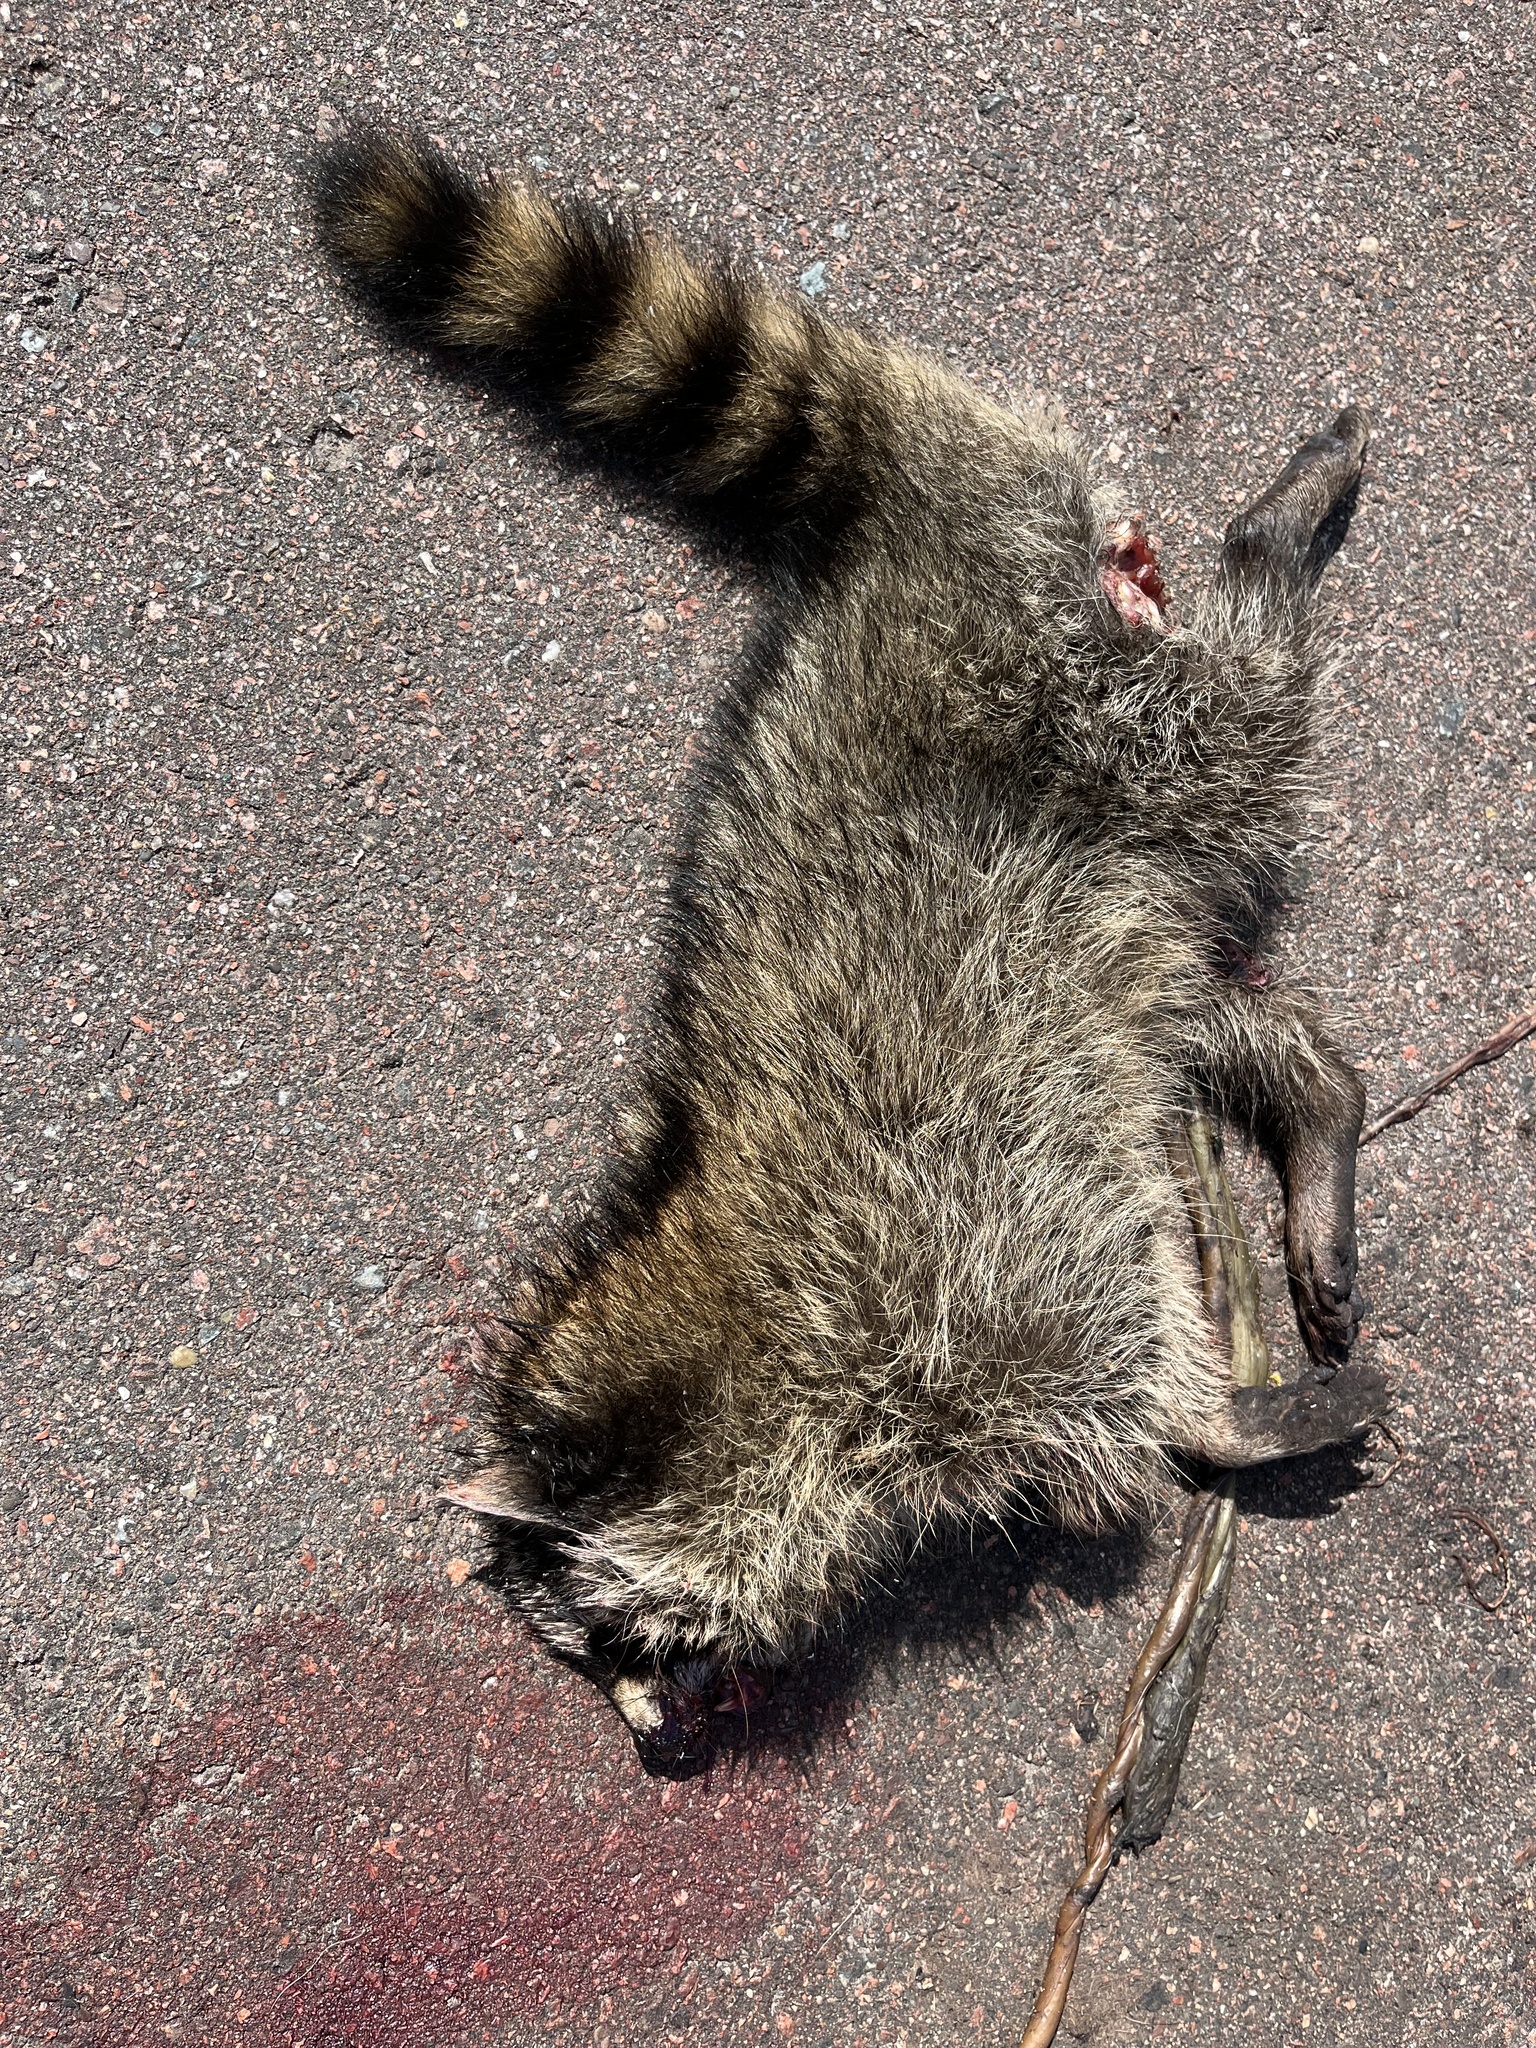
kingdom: Animalia
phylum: Chordata
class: Mammalia
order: Carnivora
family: Procyonidae
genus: Procyon
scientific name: Procyon lotor
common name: Raccoon
